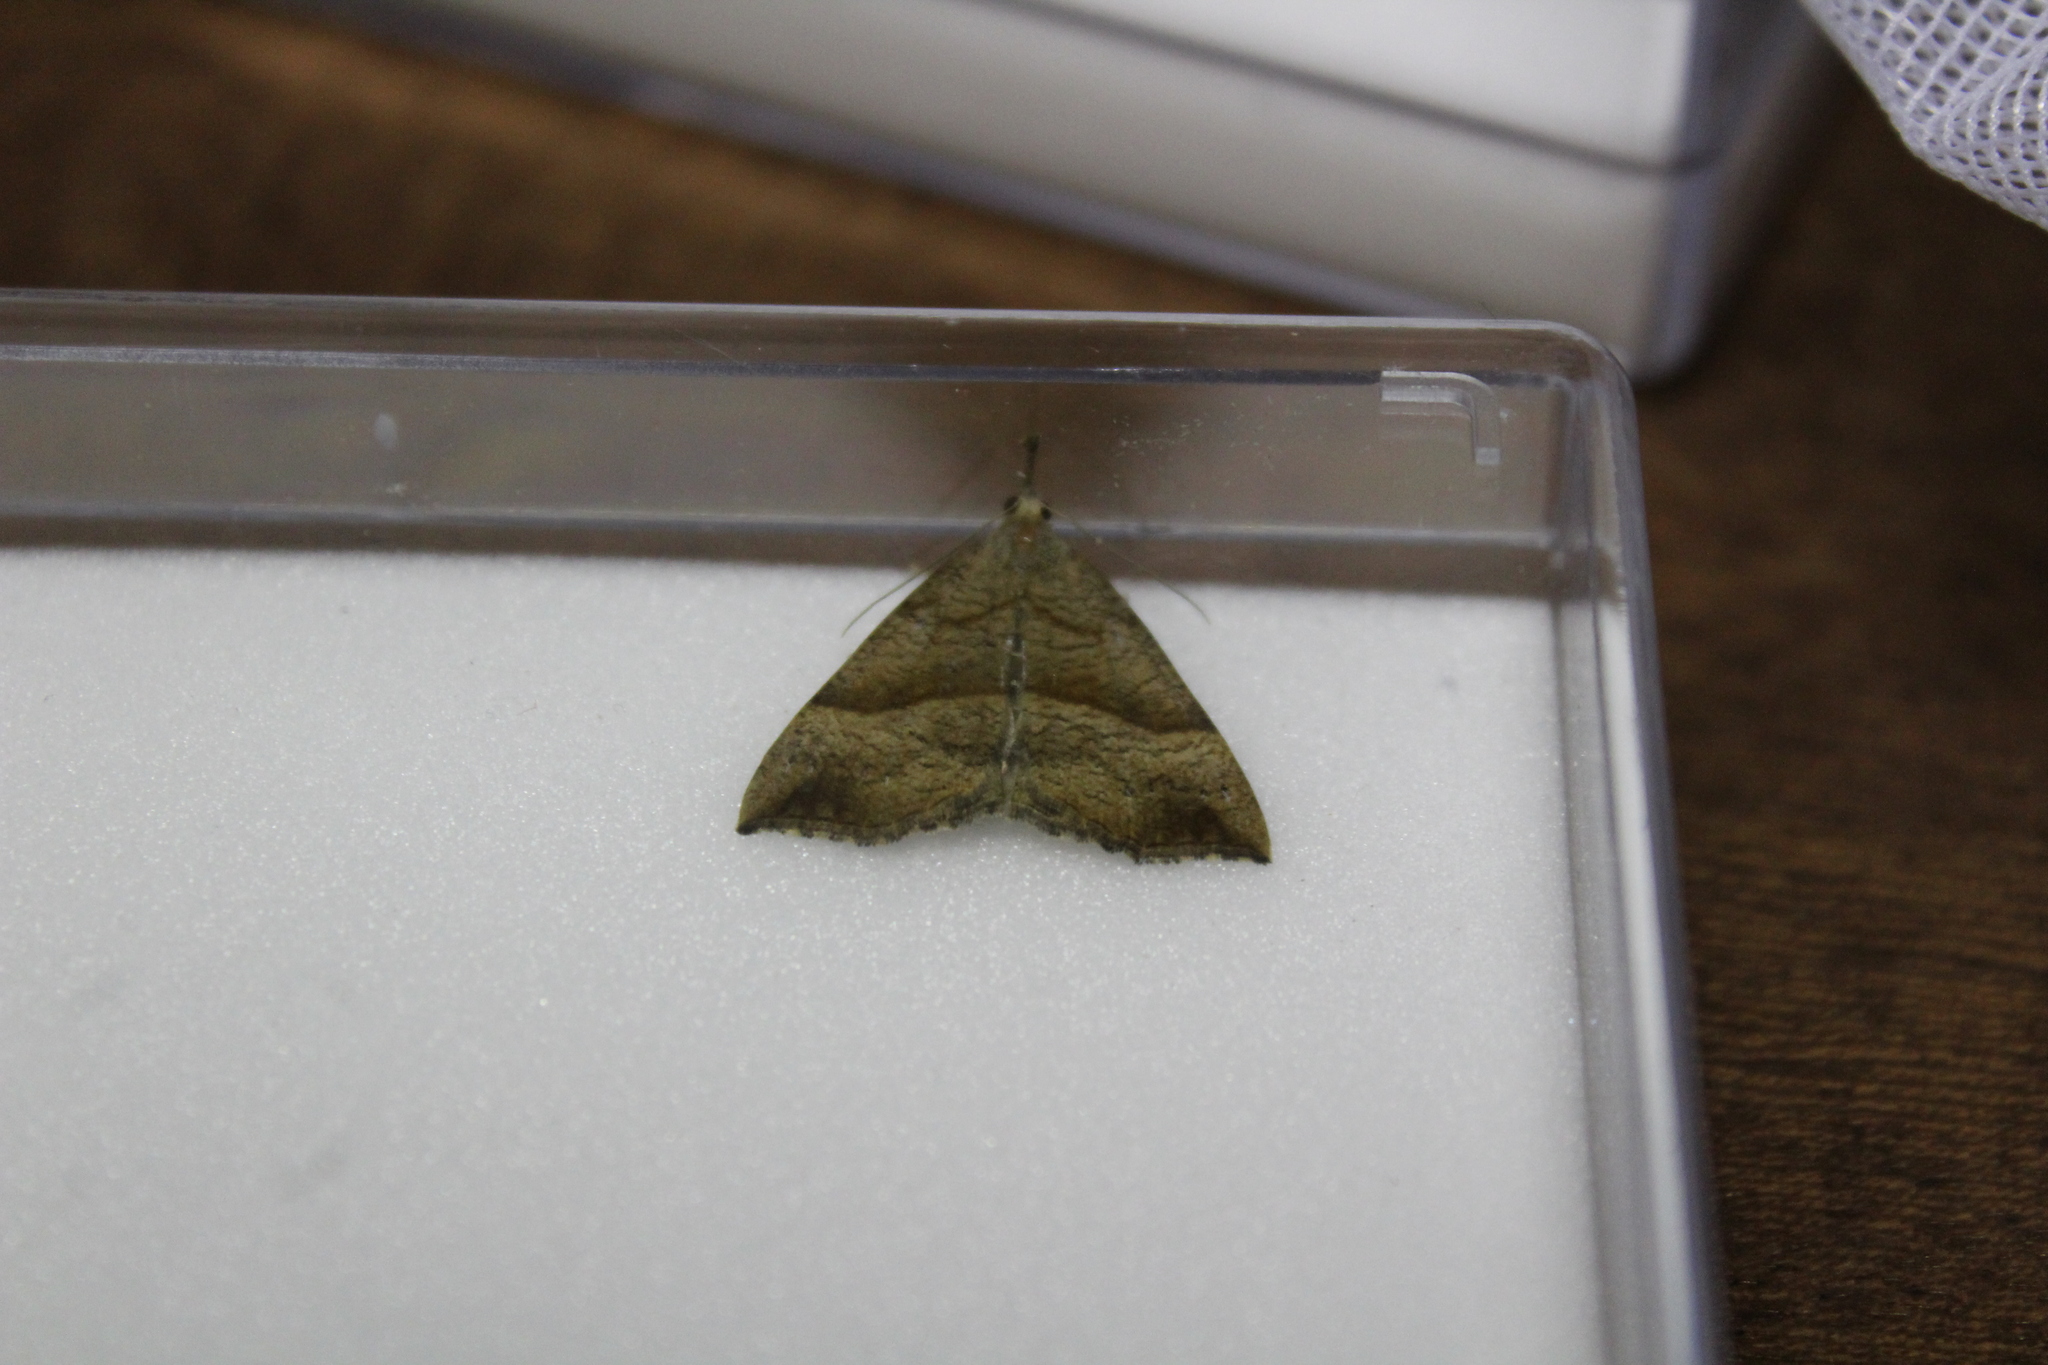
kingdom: Animalia
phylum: Arthropoda
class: Insecta
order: Lepidoptera
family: Erebidae
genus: Hypena
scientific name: Hypena proboscidalis
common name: Snout
